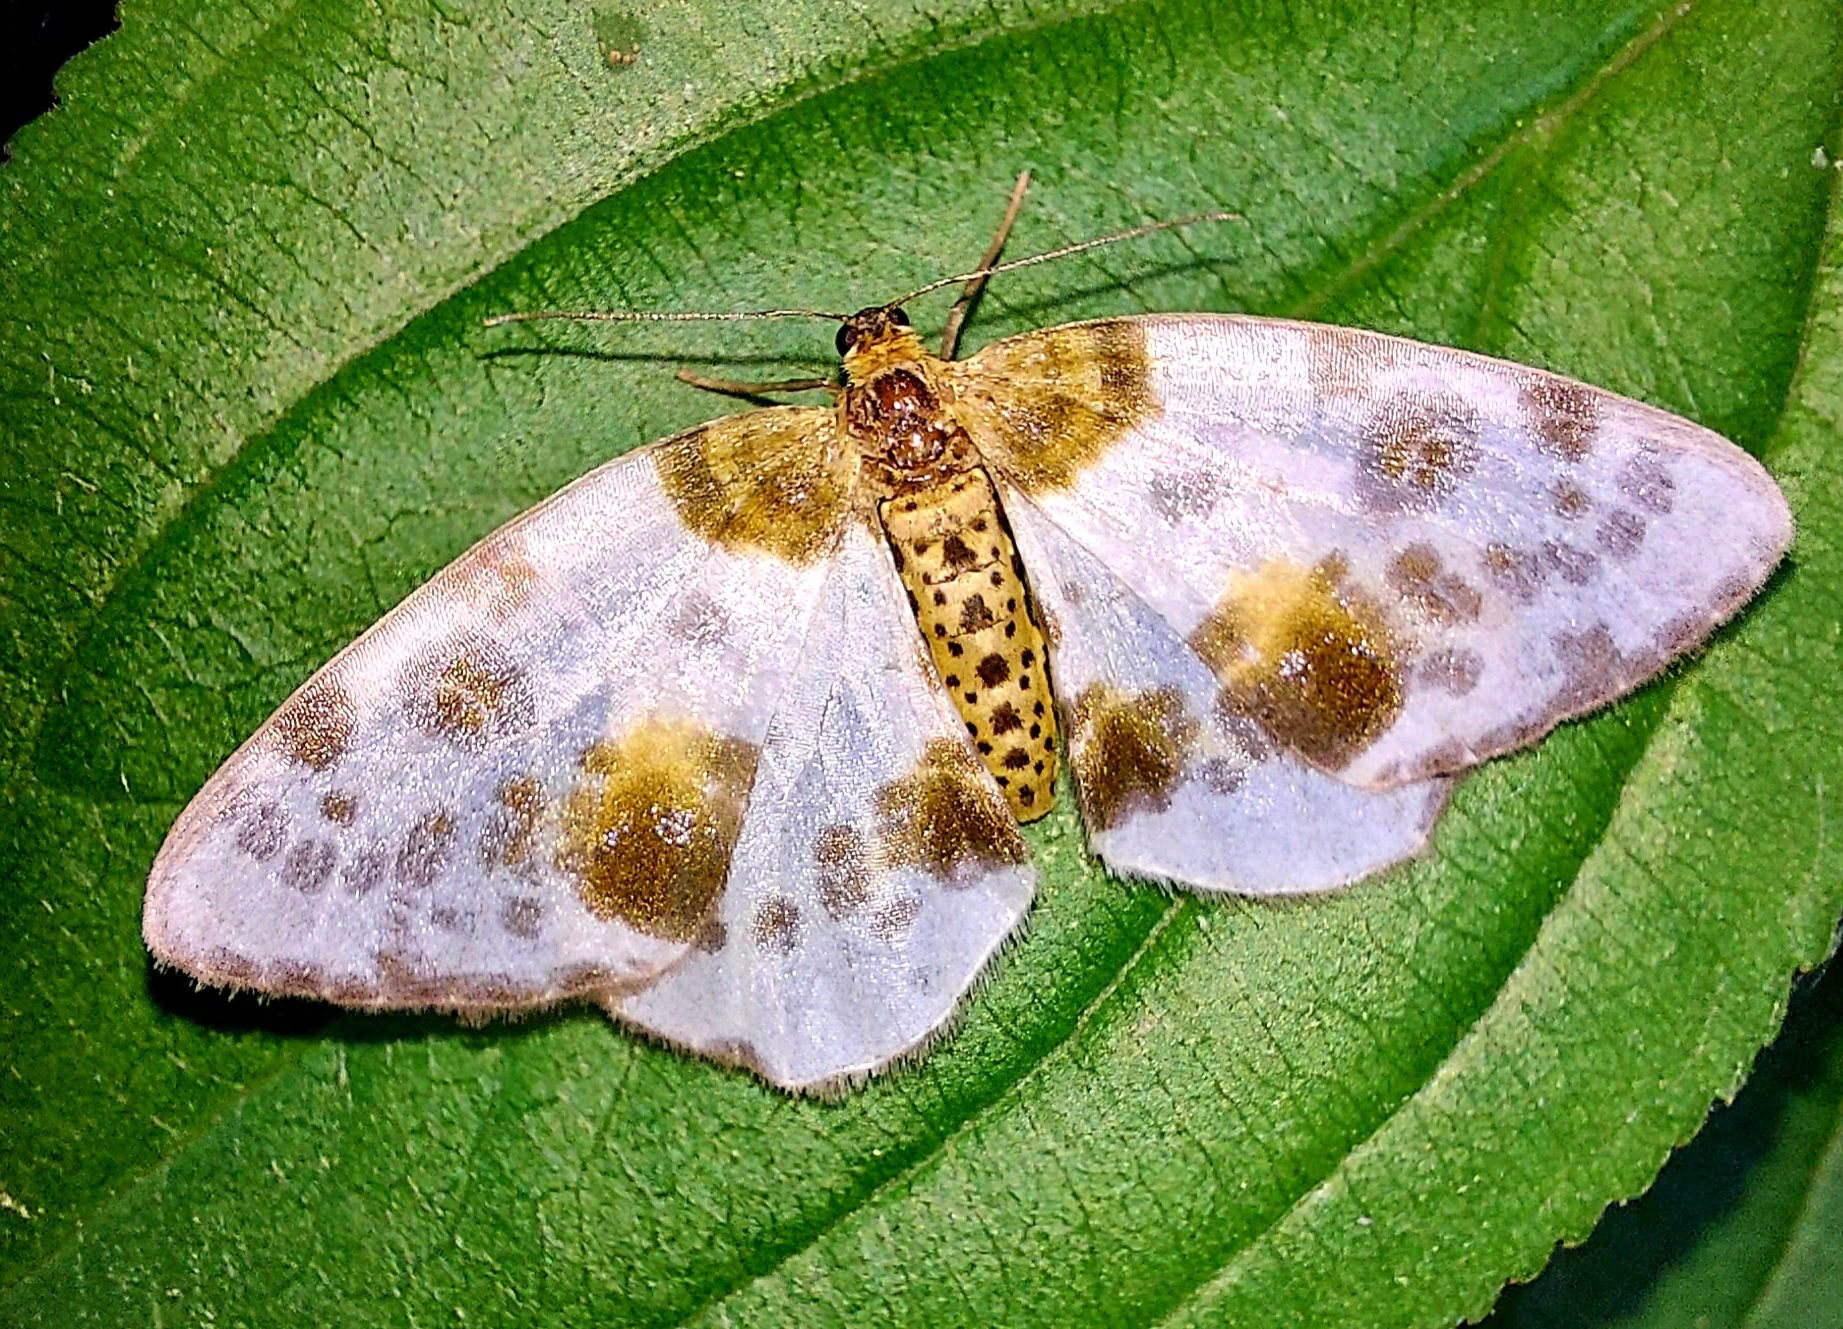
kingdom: Animalia
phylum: Arthropoda
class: Insecta
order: Lepidoptera
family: Geometridae
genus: Abraxas
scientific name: Abraxas sylvata
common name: Clouded magpie
